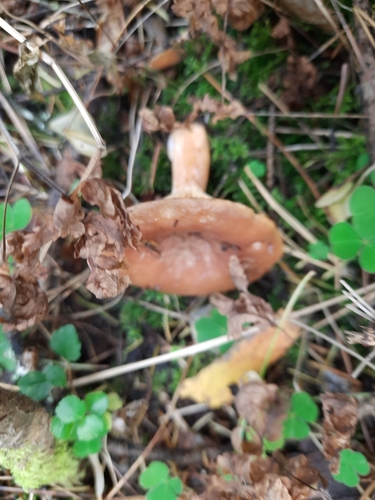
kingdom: Fungi
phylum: Basidiomycota
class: Agaricomycetes
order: Russulales
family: Russulaceae
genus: Lactarius
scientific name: Lactarius
